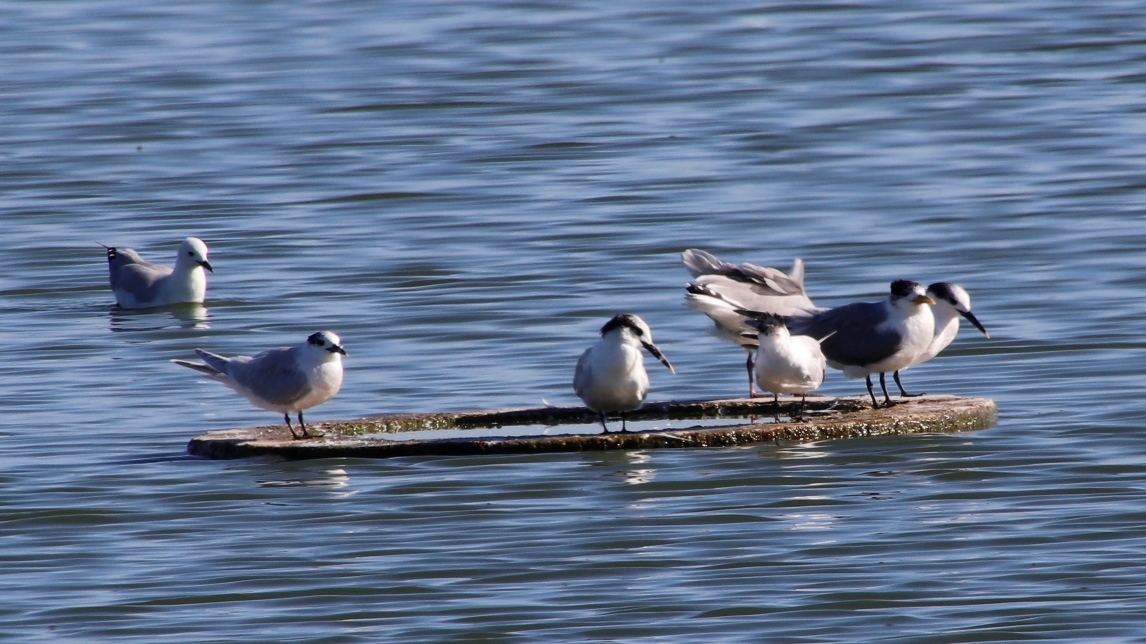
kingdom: Animalia
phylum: Chordata
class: Aves
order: Charadriiformes
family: Laridae
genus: Thalasseus
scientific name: Thalasseus sandvicensis
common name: Sandwich tern
